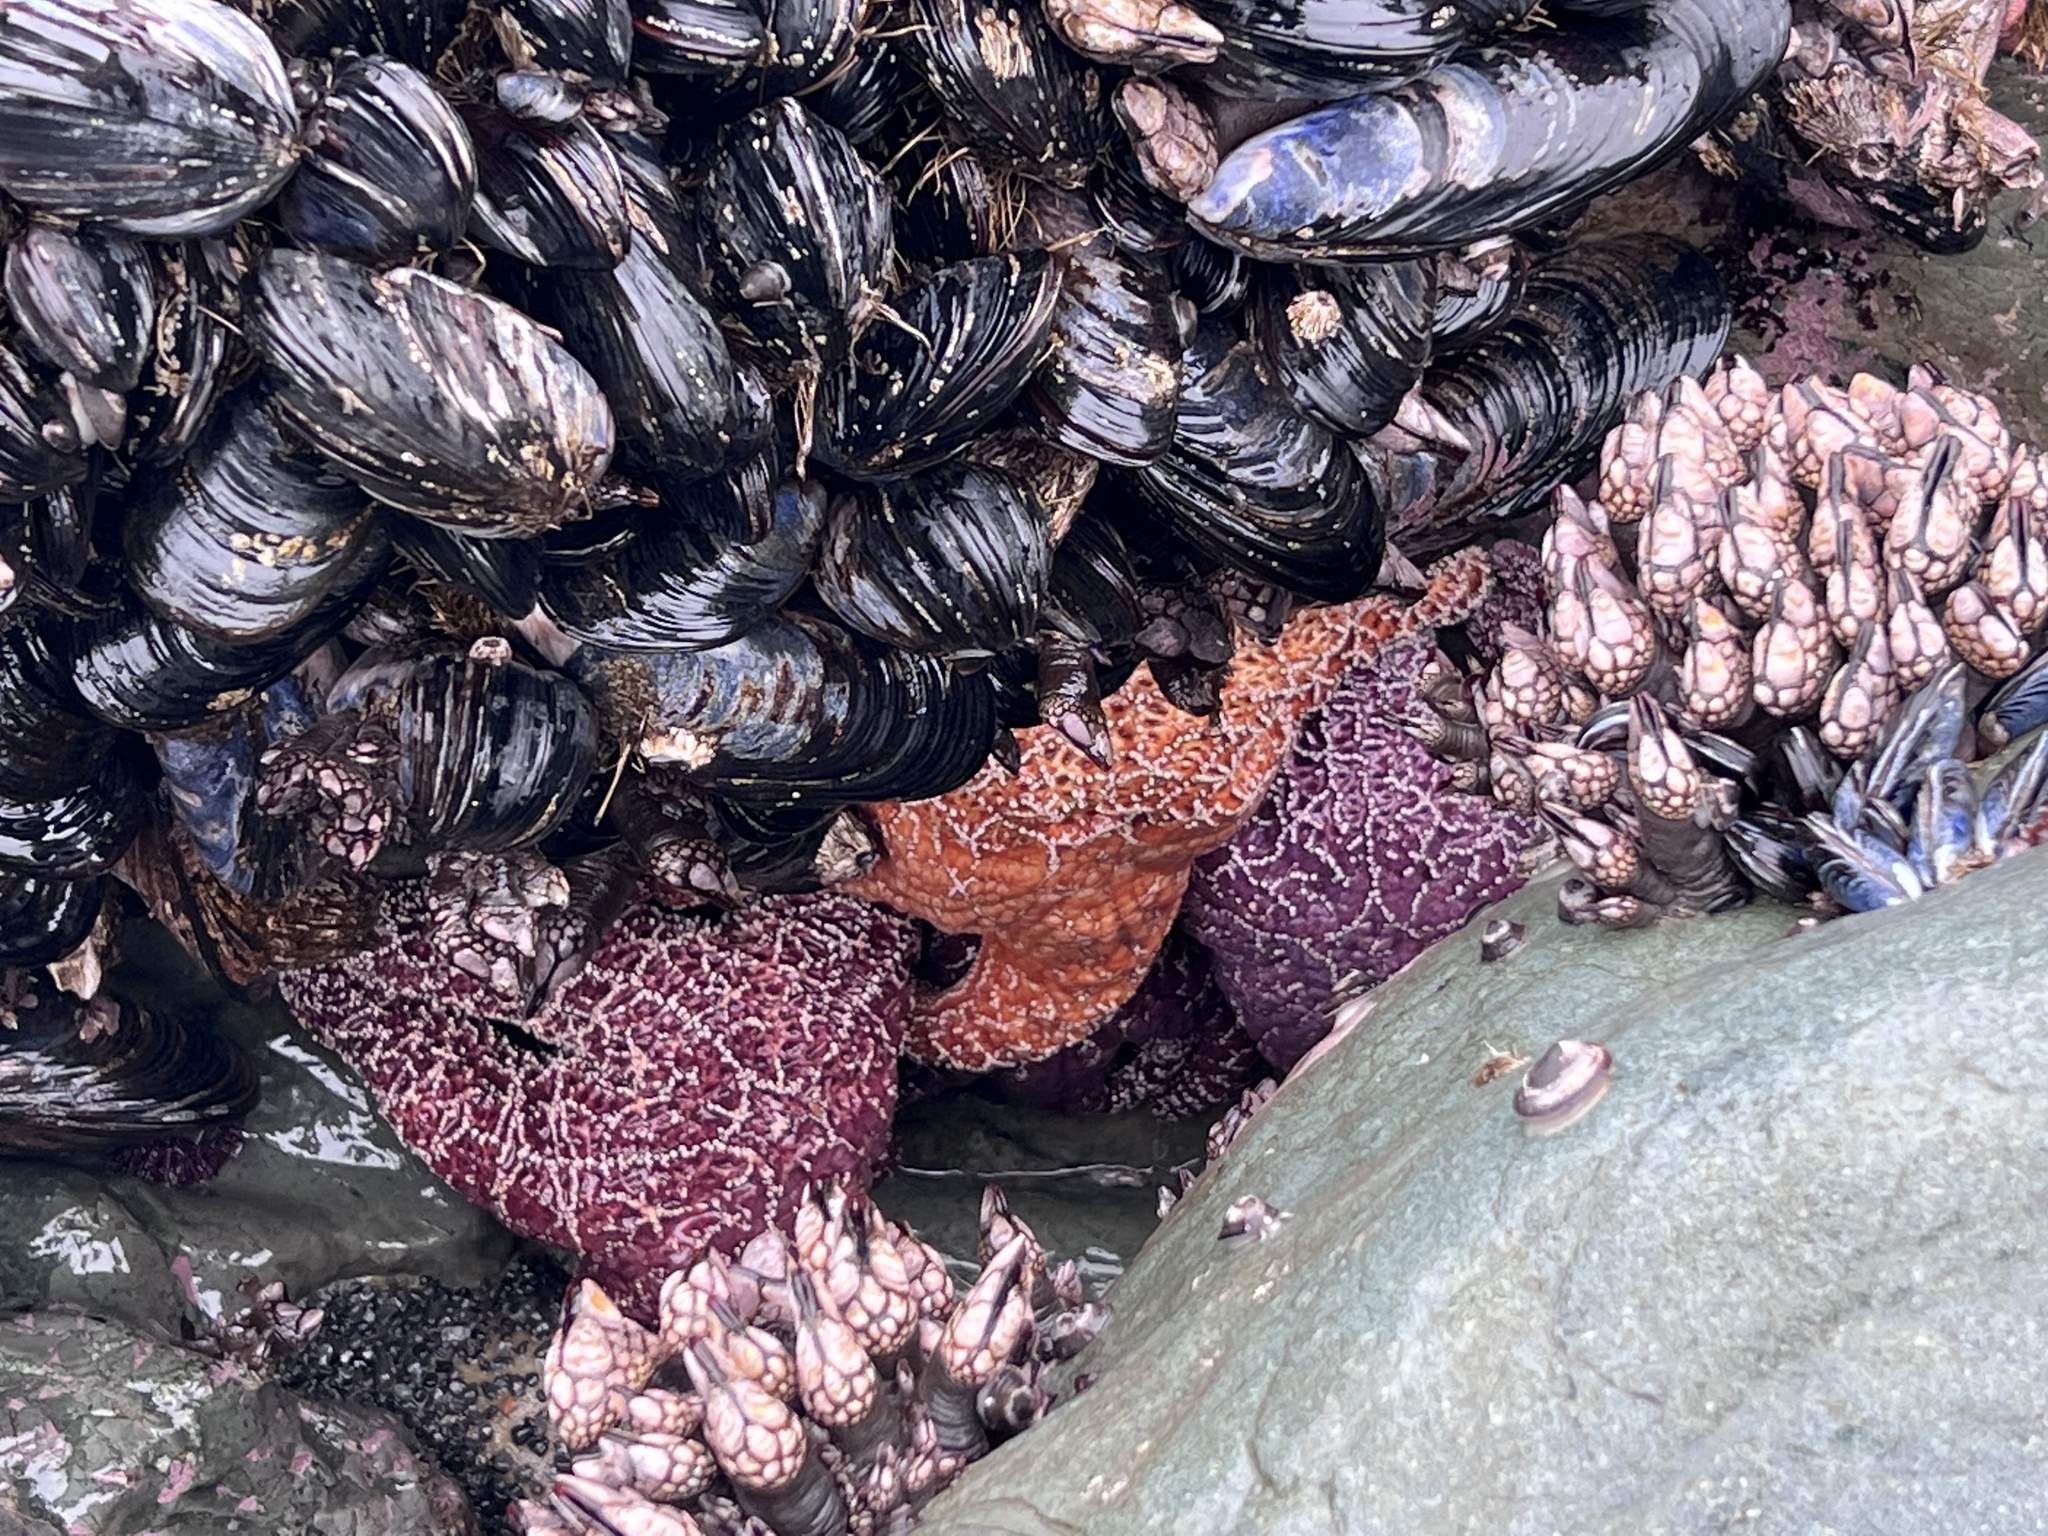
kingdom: Animalia
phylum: Echinodermata
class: Asteroidea
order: Forcipulatida
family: Asteriidae
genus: Pisaster
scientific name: Pisaster ochraceus
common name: Ochre stars
